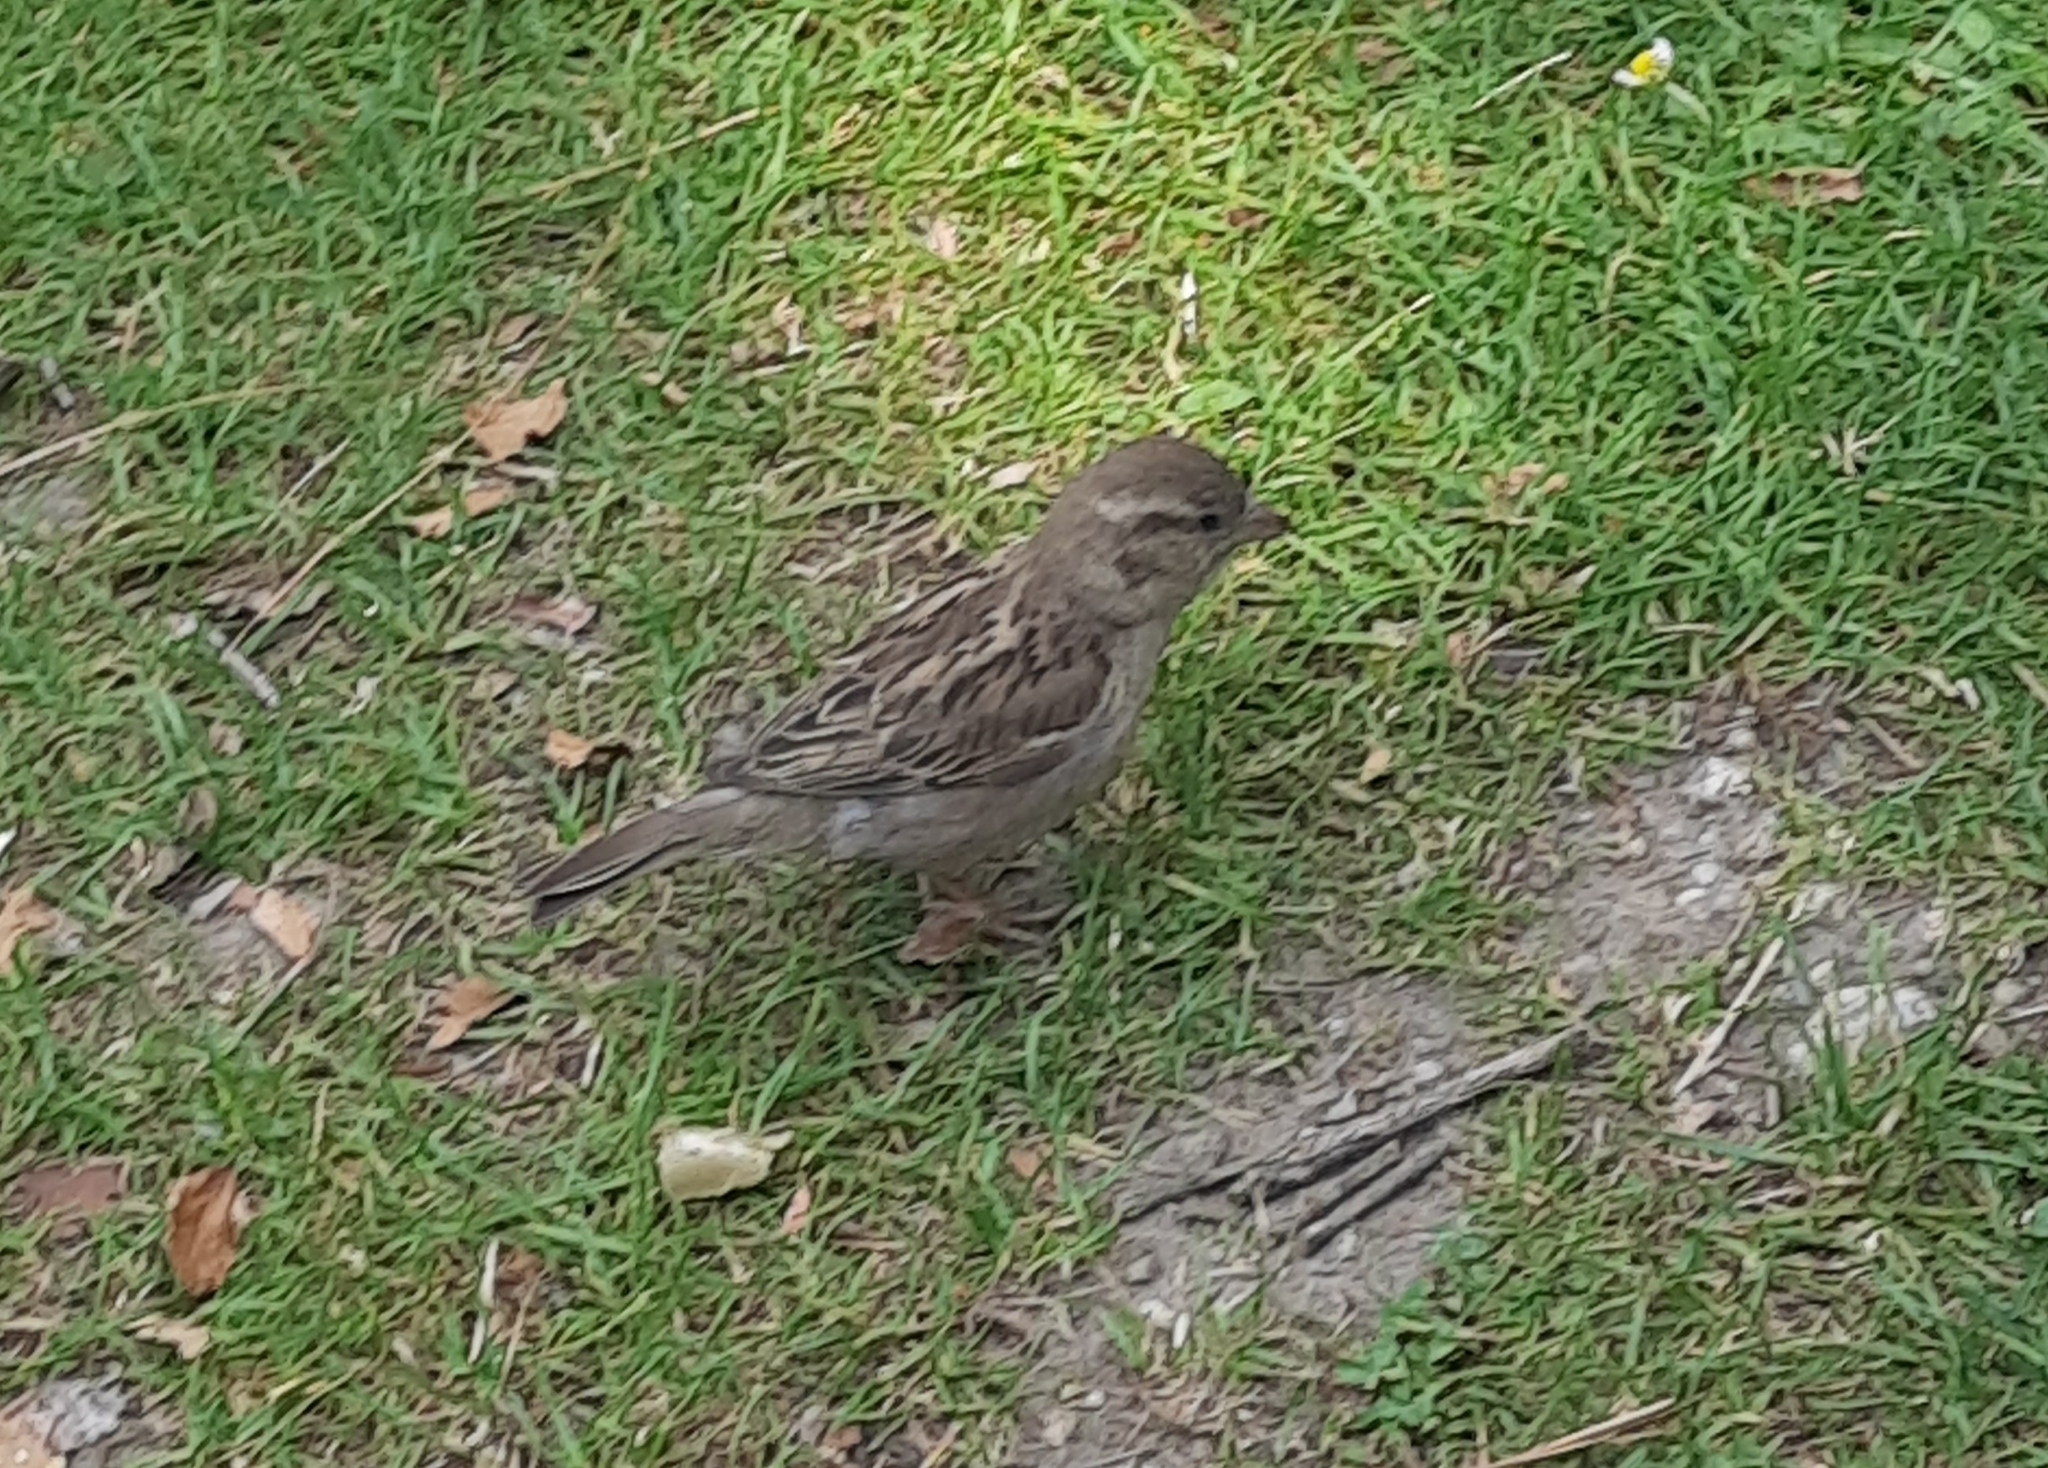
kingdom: Animalia
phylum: Chordata
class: Aves
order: Passeriformes
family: Passeridae
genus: Passer
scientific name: Passer domesticus
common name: House sparrow
